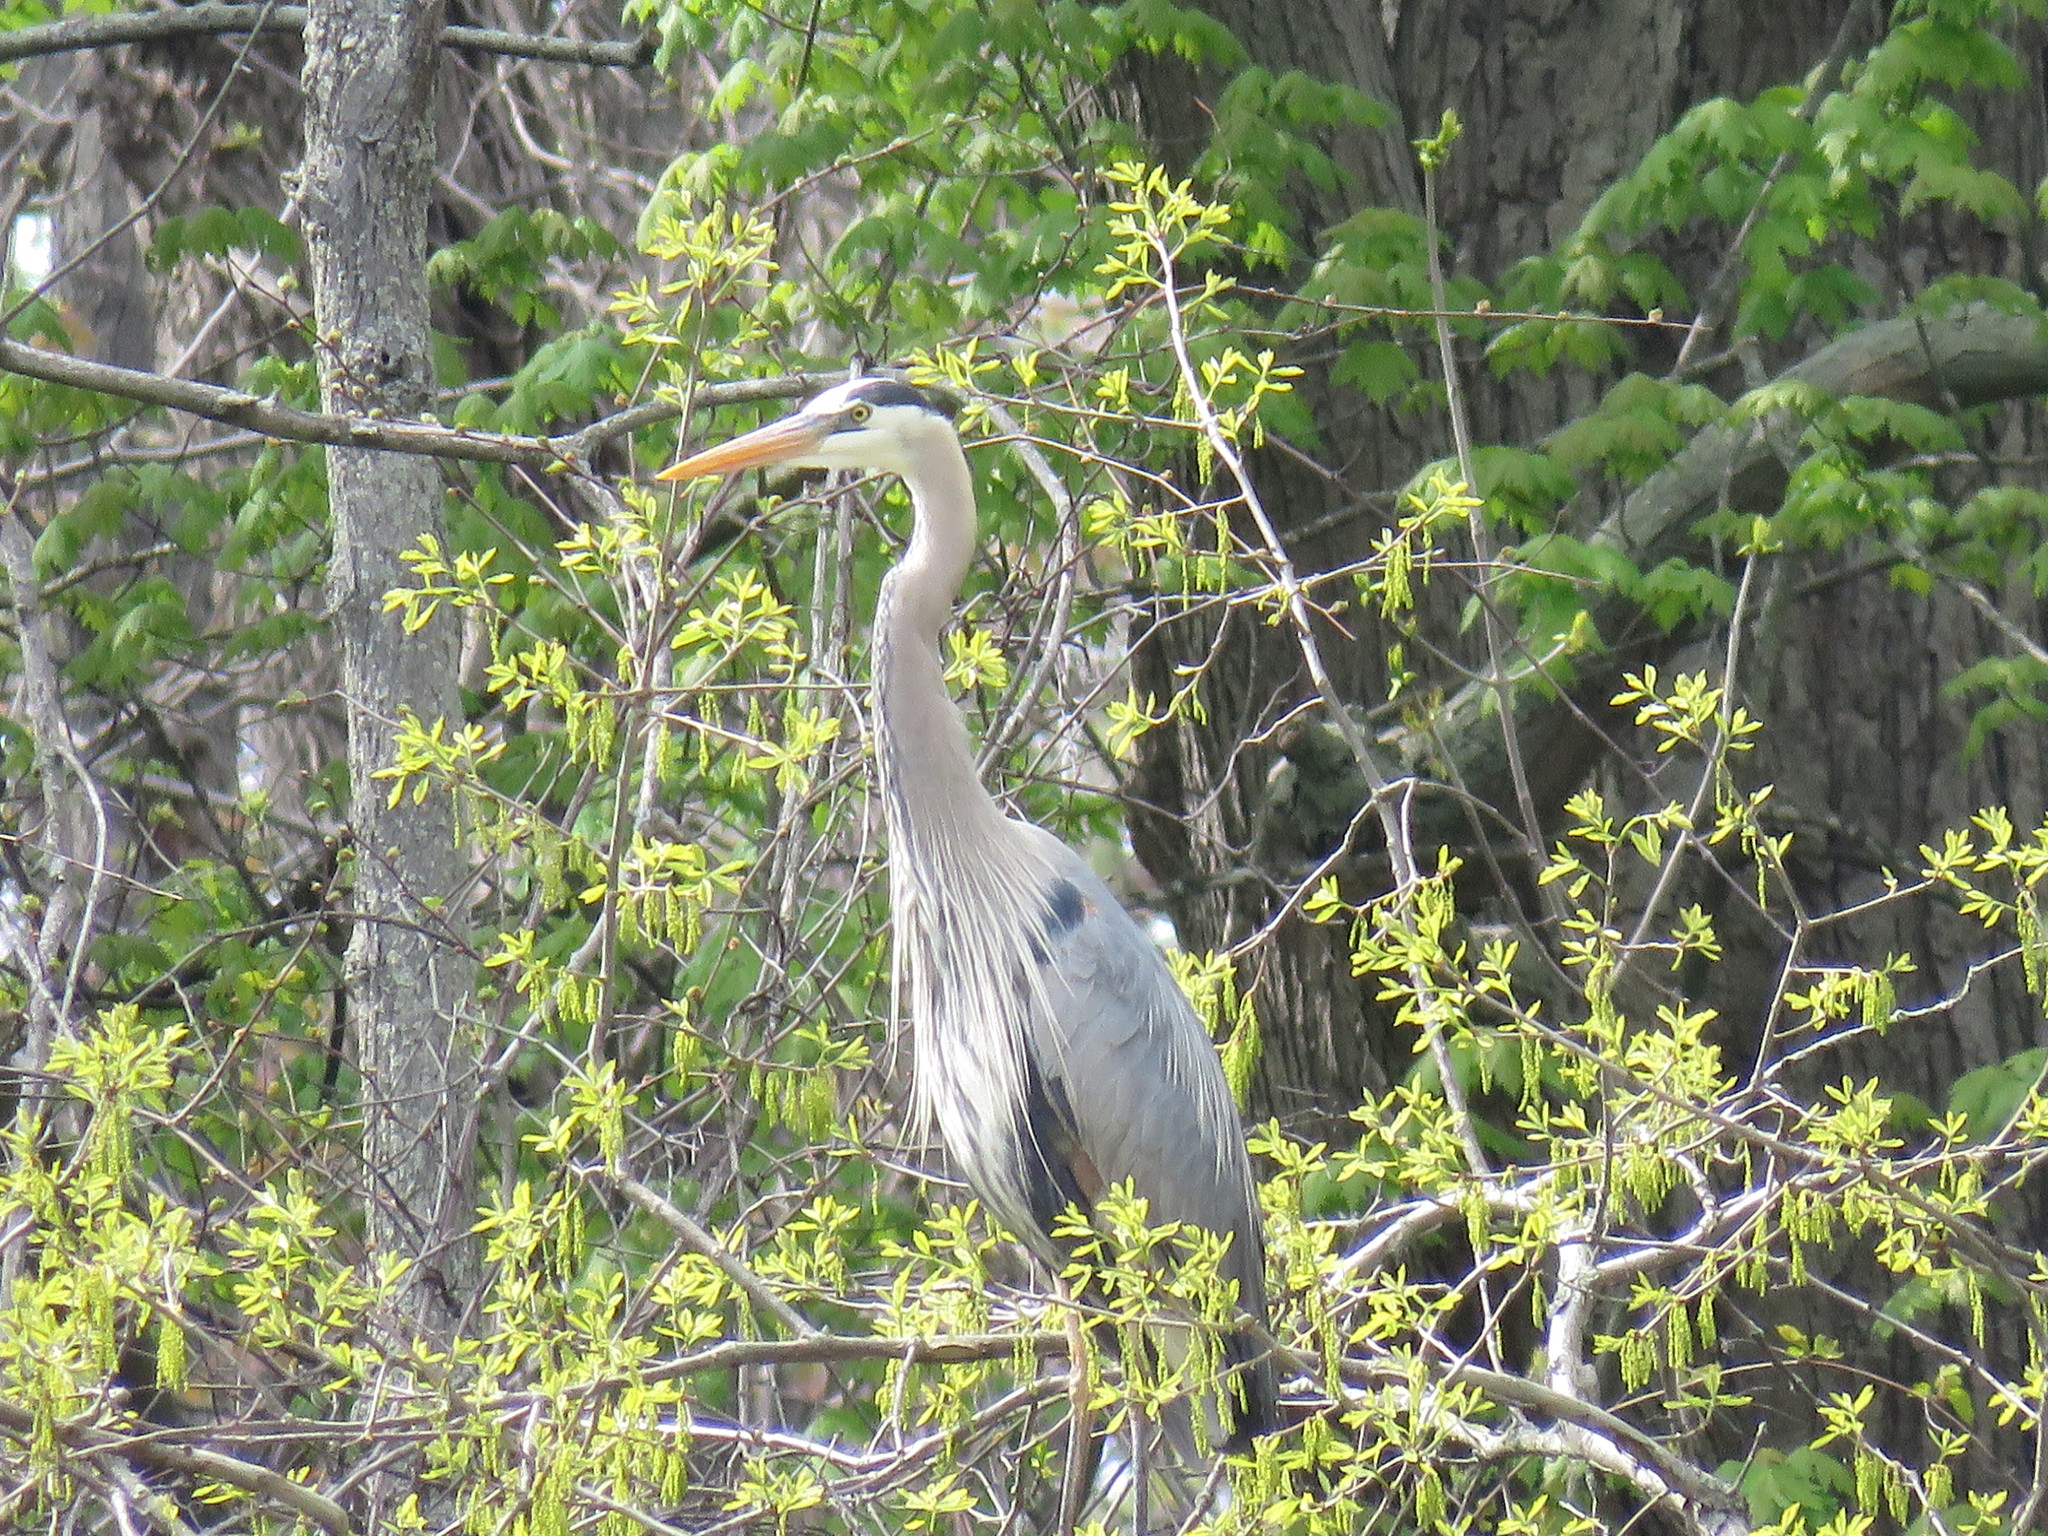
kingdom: Animalia
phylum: Chordata
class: Aves
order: Pelecaniformes
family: Ardeidae
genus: Ardea
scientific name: Ardea herodias
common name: Great blue heron
